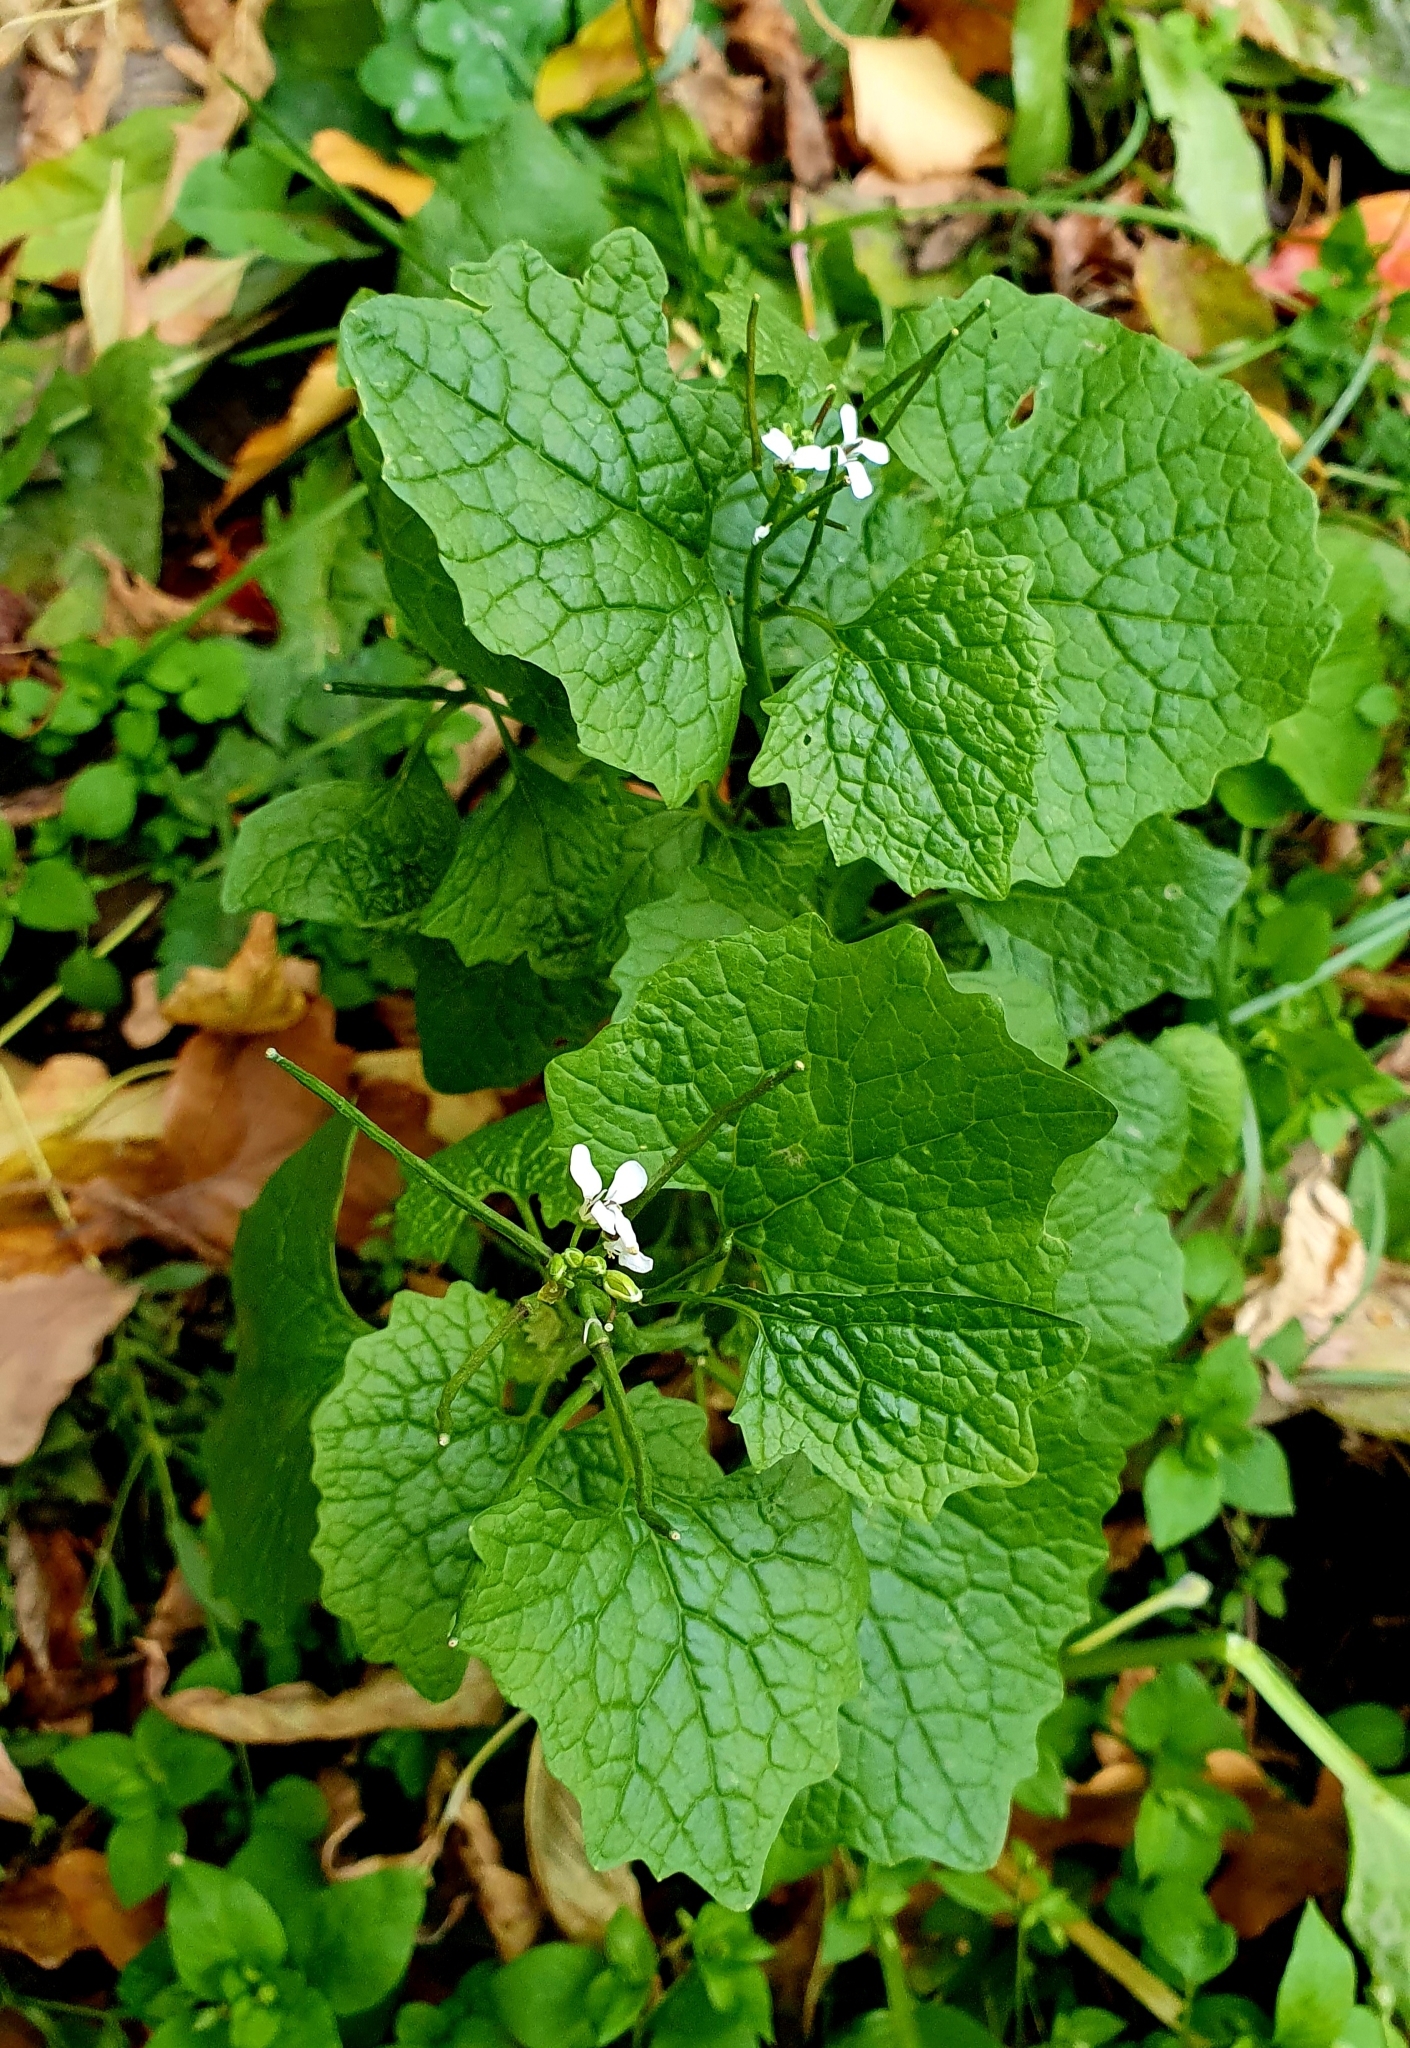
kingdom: Plantae
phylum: Tracheophyta
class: Magnoliopsida
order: Brassicales
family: Brassicaceae
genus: Alliaria
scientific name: Alliaria petiolata
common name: Garlic mustard
